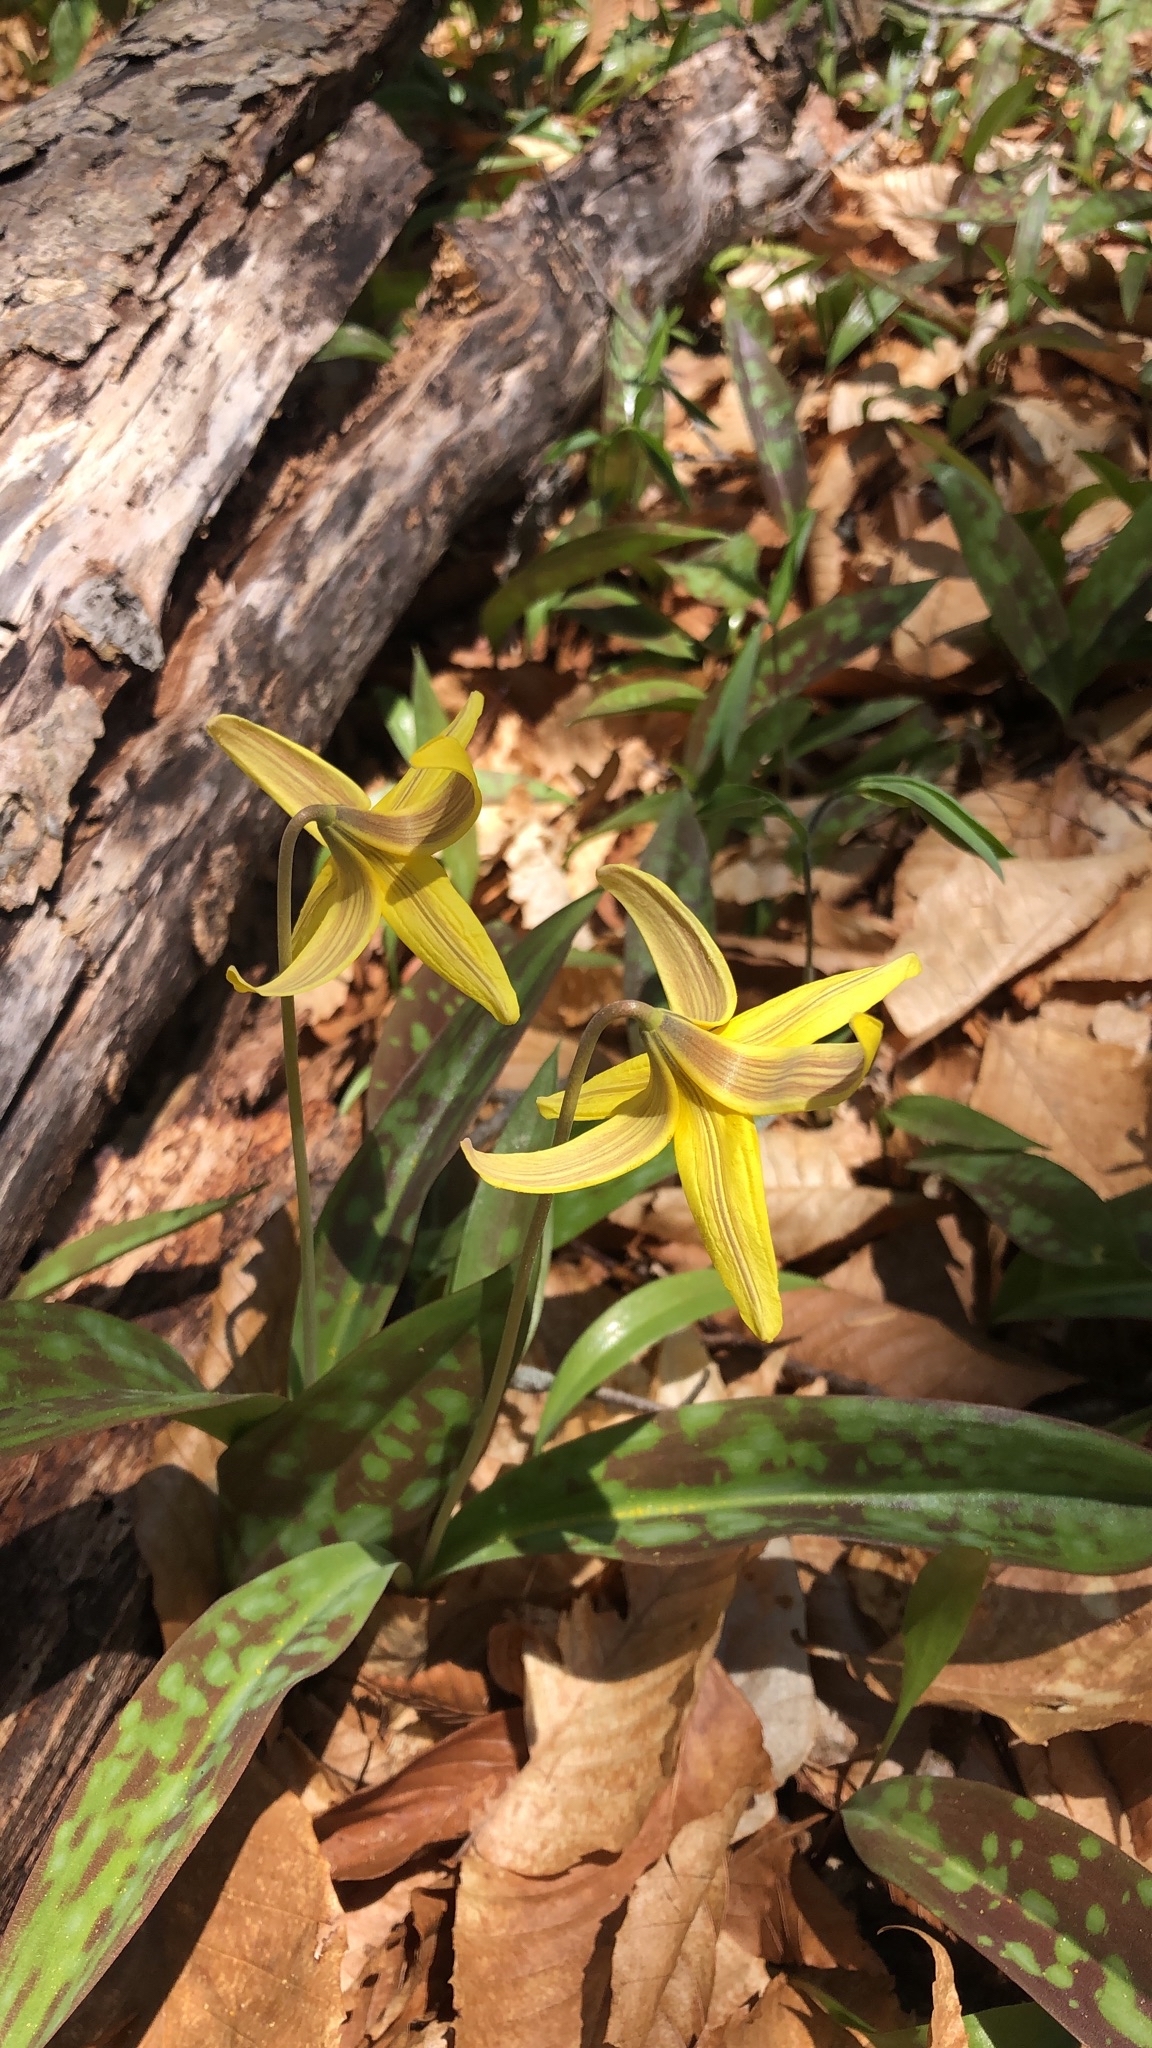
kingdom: Plantae
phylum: Tracheophyta
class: Liliopsida
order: Liliales
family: Liliaceae
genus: Erythronium
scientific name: Erythronium americanum
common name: Yellow adder's-tongue
